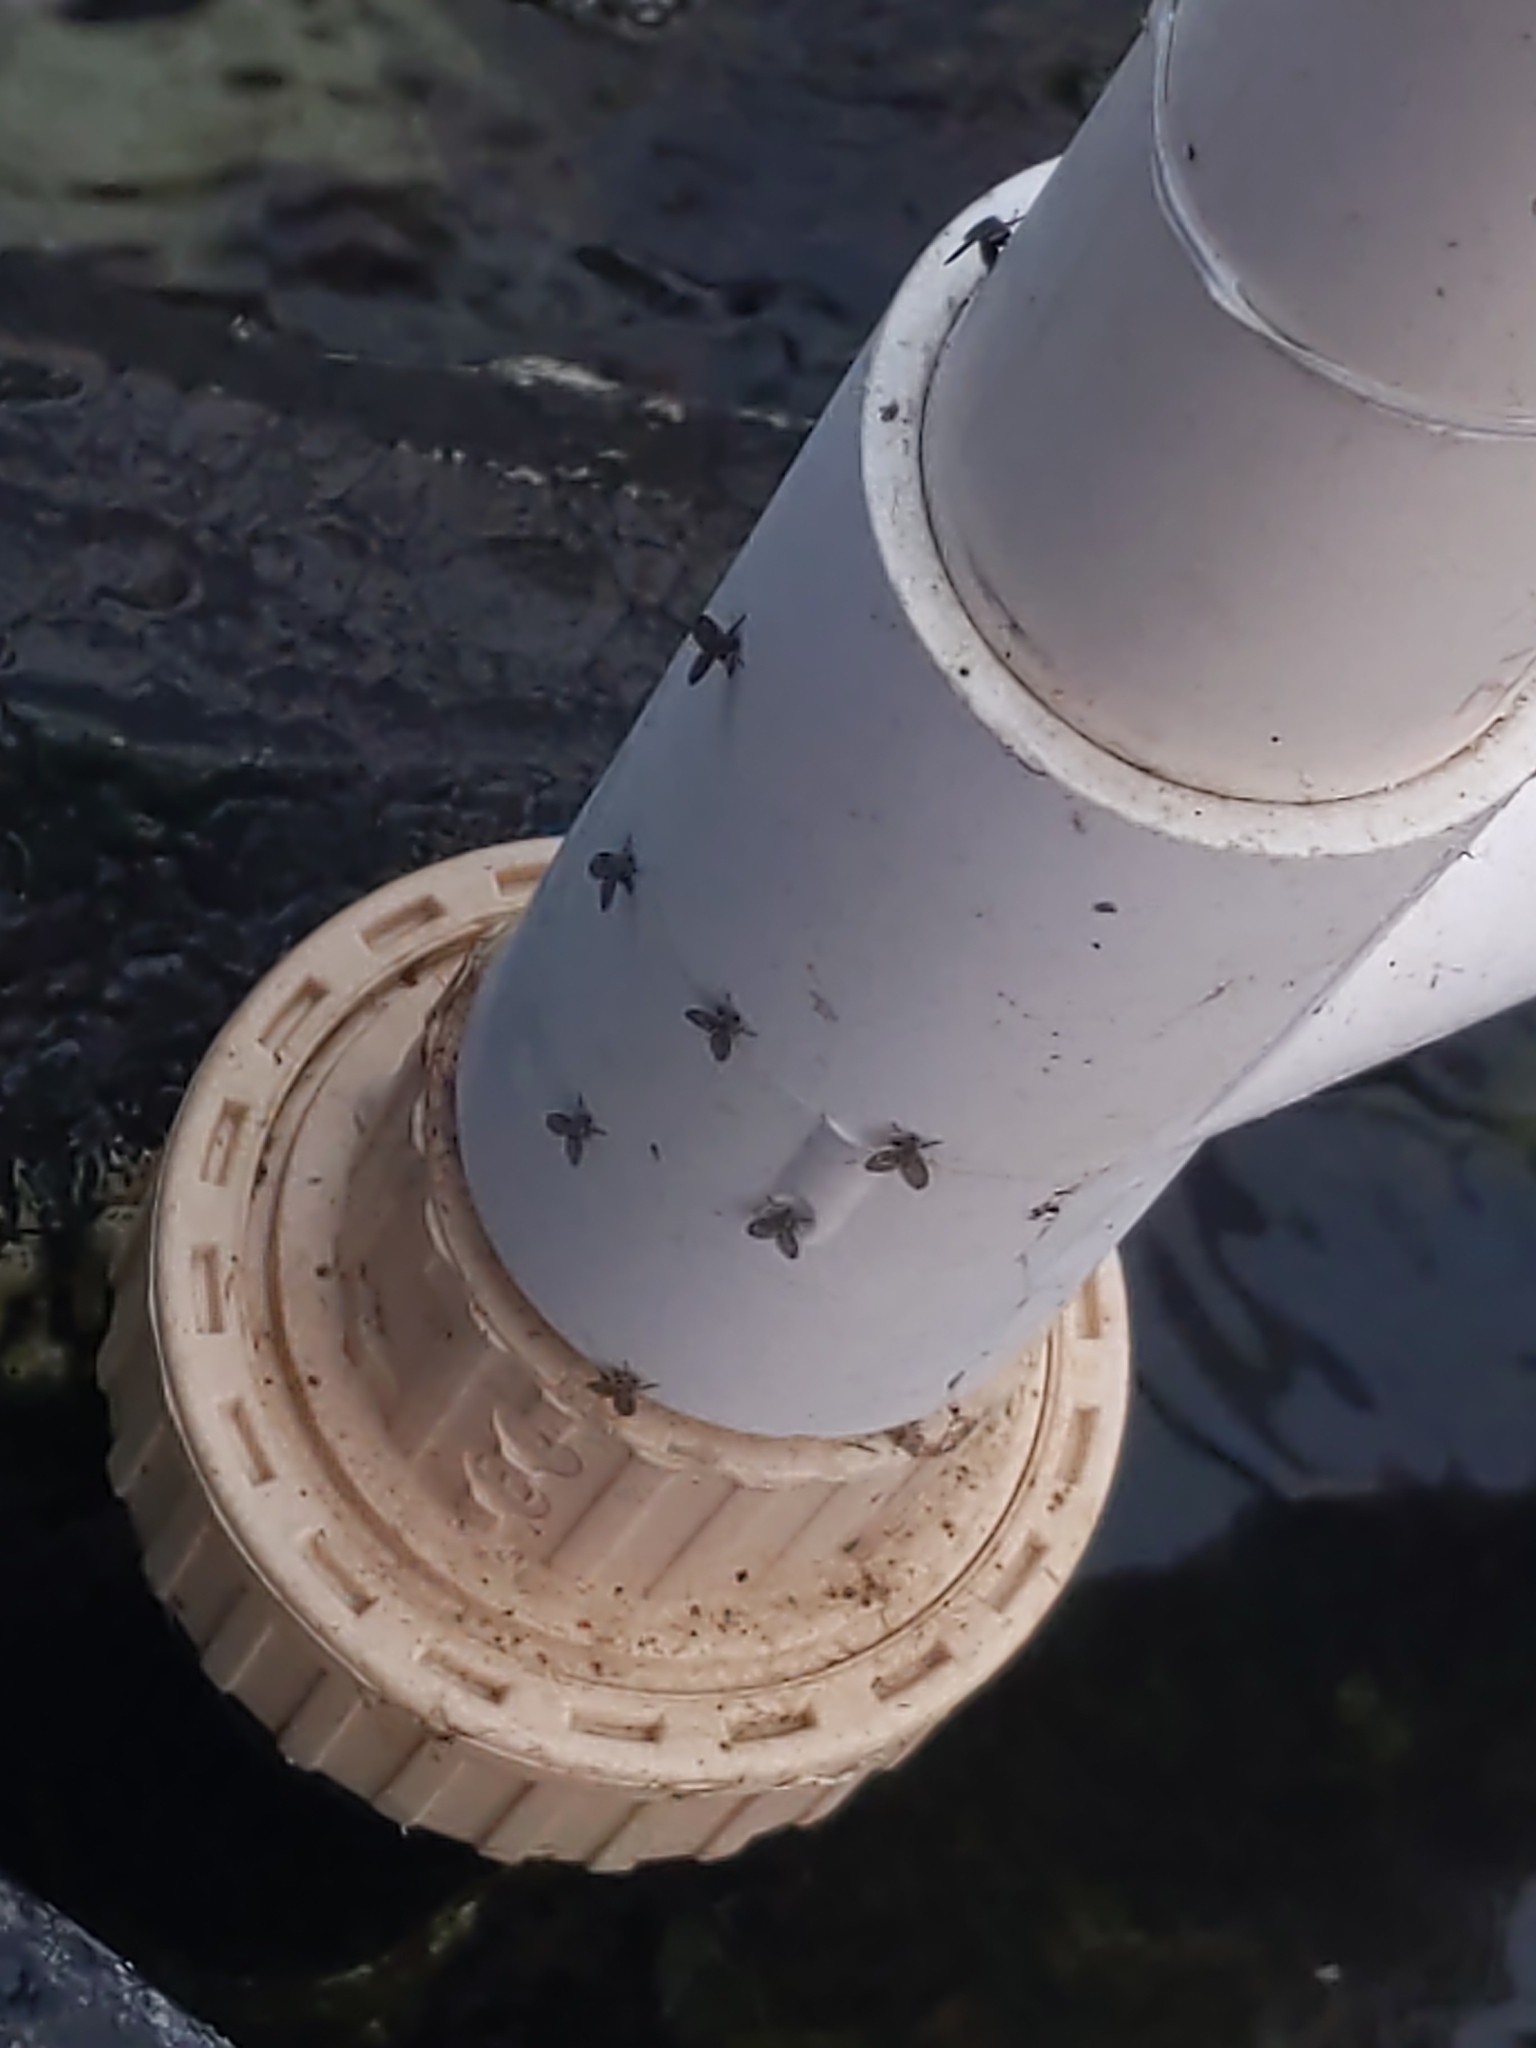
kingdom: Animalia
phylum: Arthropoda
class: Insecta
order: Diptera
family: Psychodidae
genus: Clogmia
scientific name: Clogmia albipunctatus
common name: White-spotted moth fly
